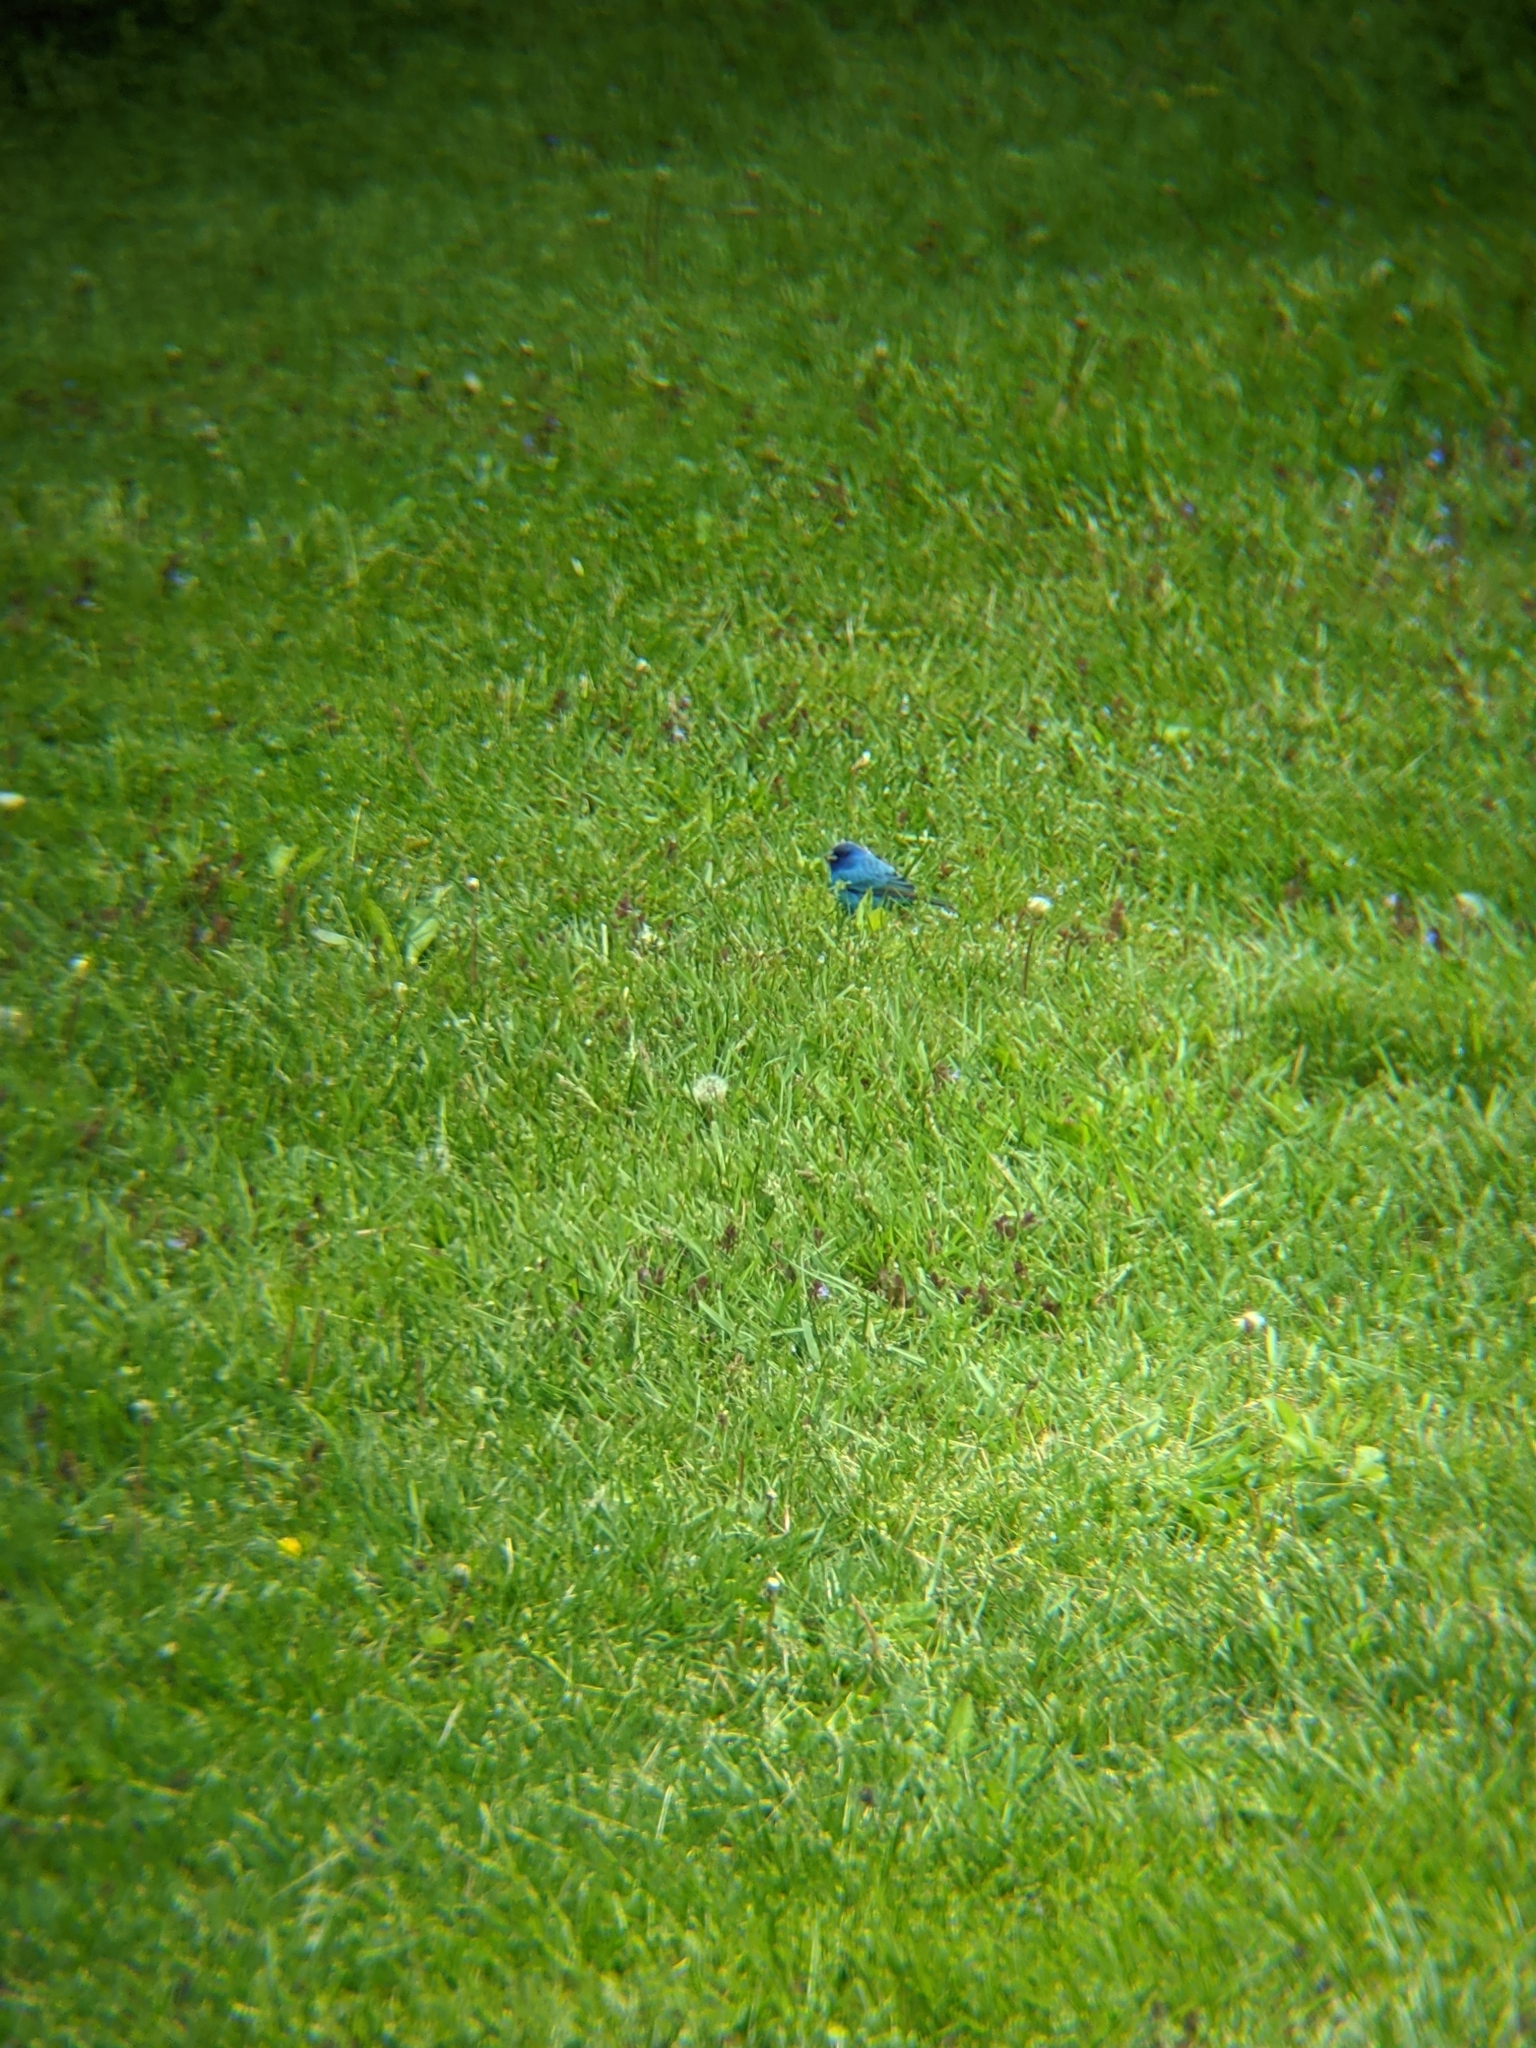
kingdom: Animalia
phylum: Chordata
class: Aves
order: Passeriformes
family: Cardinalidae
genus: Passerina
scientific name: Passerina cyanea
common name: Indigo bunting
